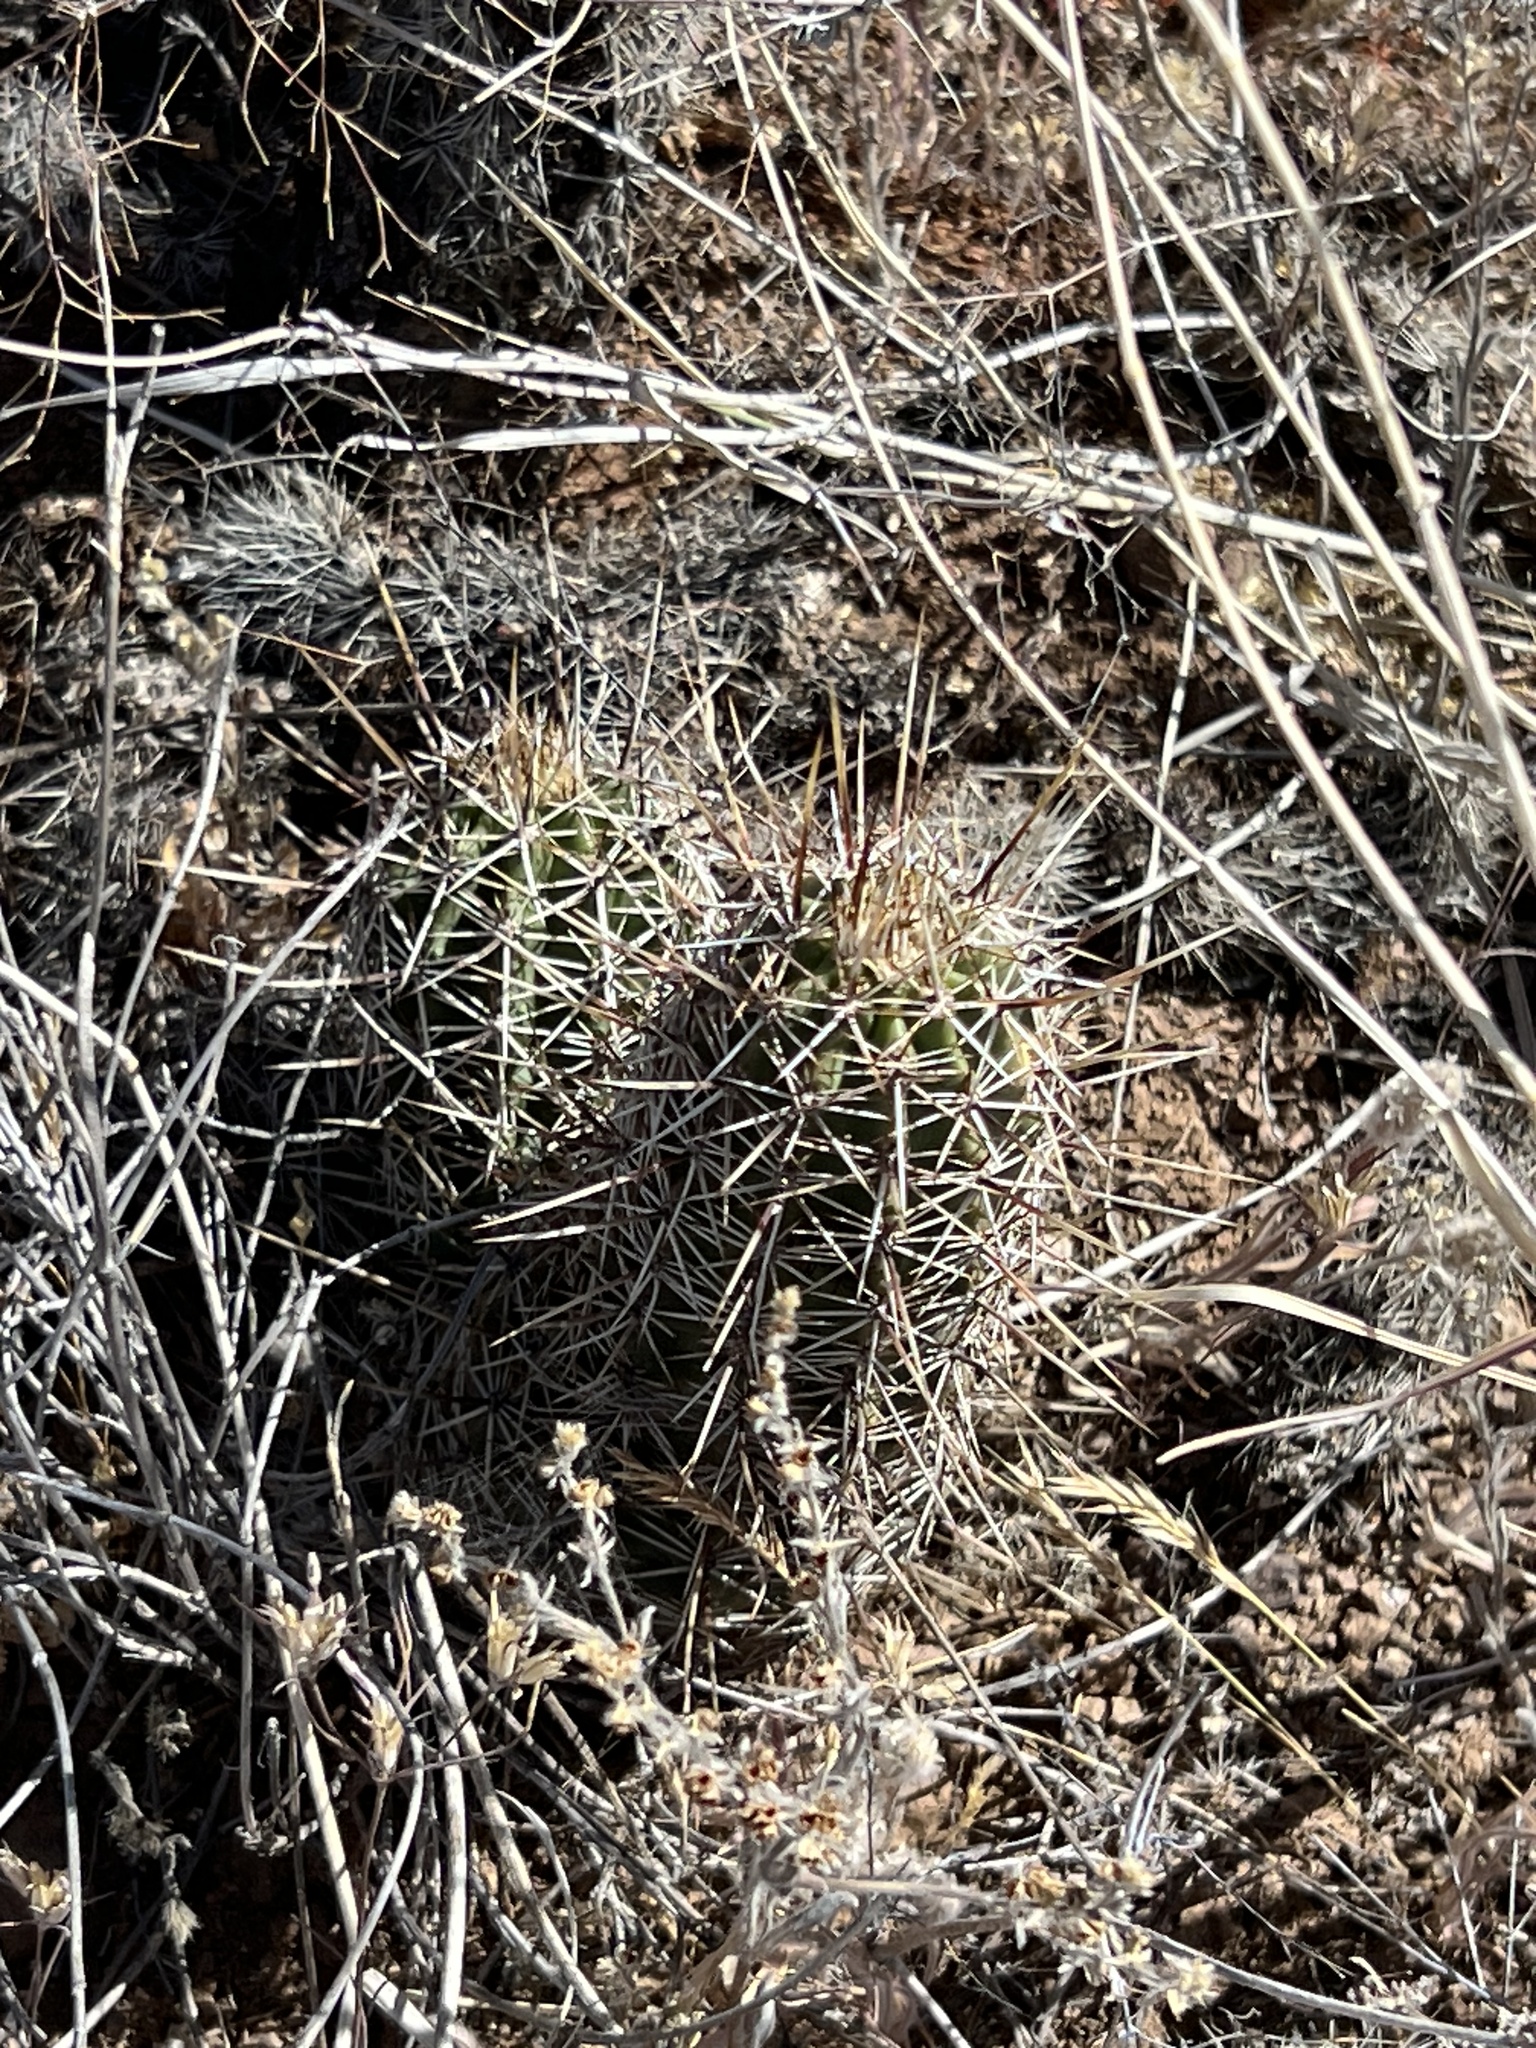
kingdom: Plantae
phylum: Tracheophyta
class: Magnoliopsida
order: Caryophyllales
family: Cactaceae
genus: Echinocereus
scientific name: Echinocereus fendleri
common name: Fendler's hedgehog cactus
